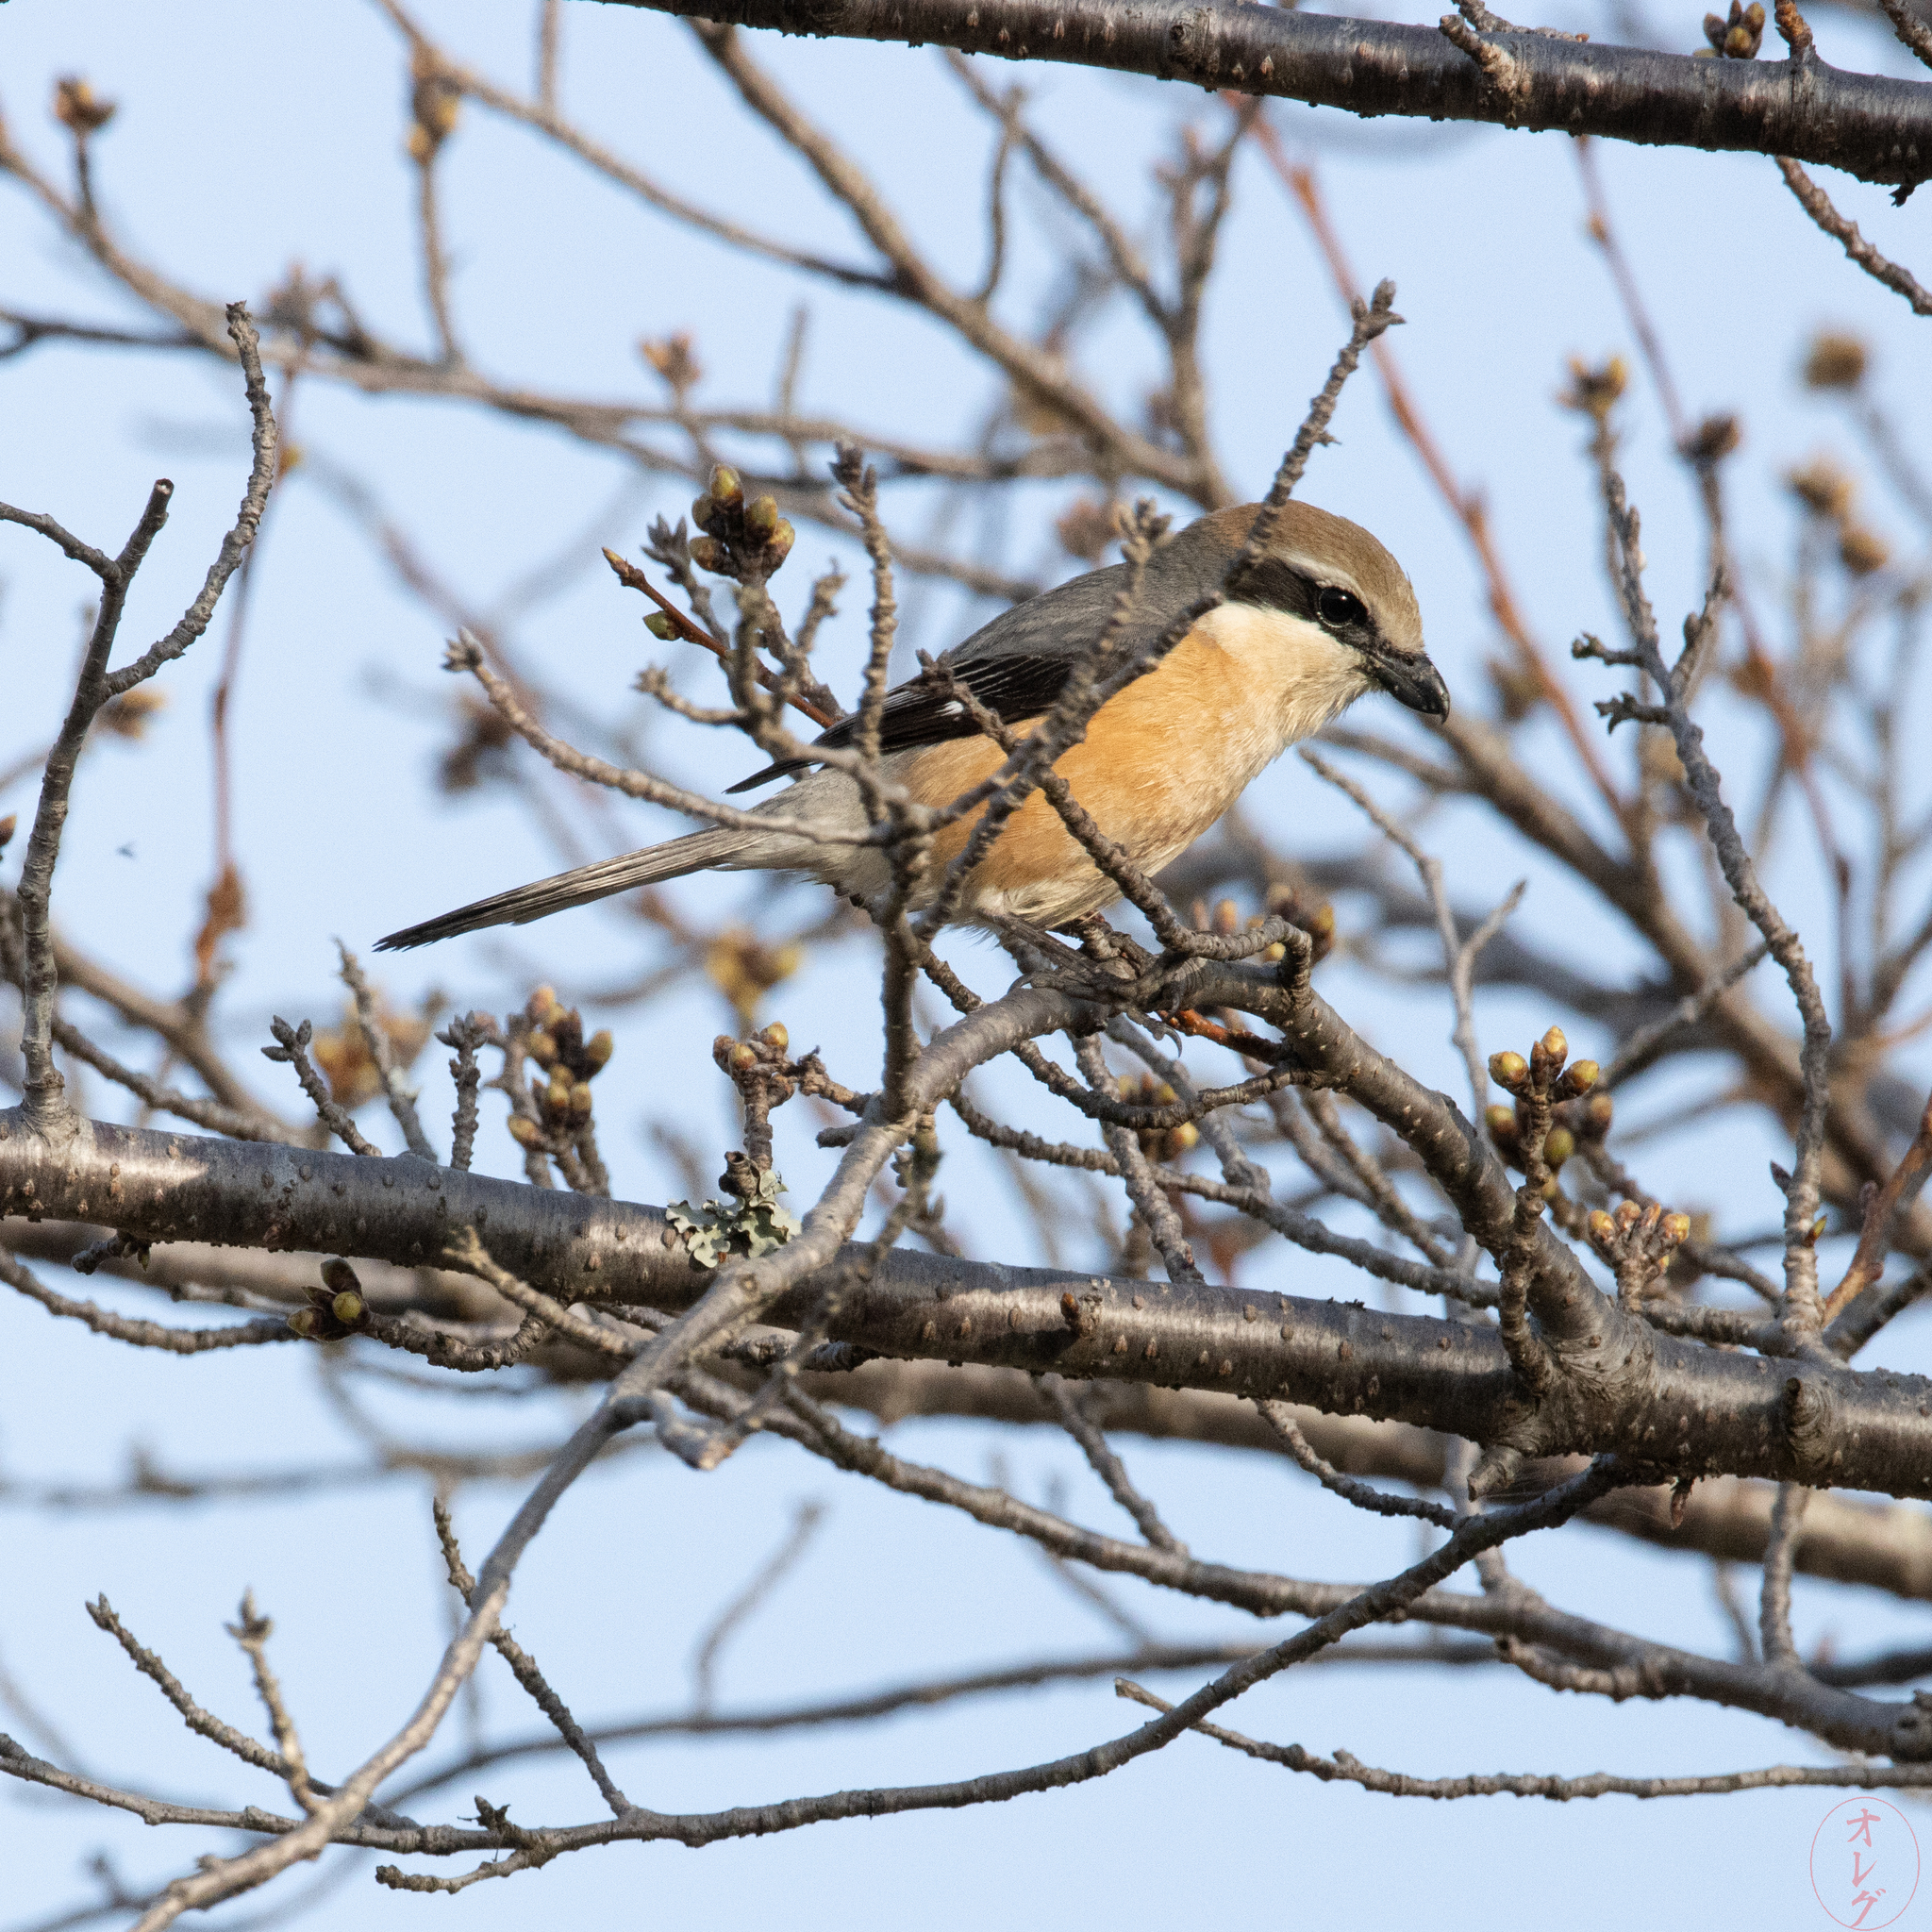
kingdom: Animalia
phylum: Chordata
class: Aves
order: Passeriformes
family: Laniidae
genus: Lanius
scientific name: Lanius bucephalus
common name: Bull-headed shrike
